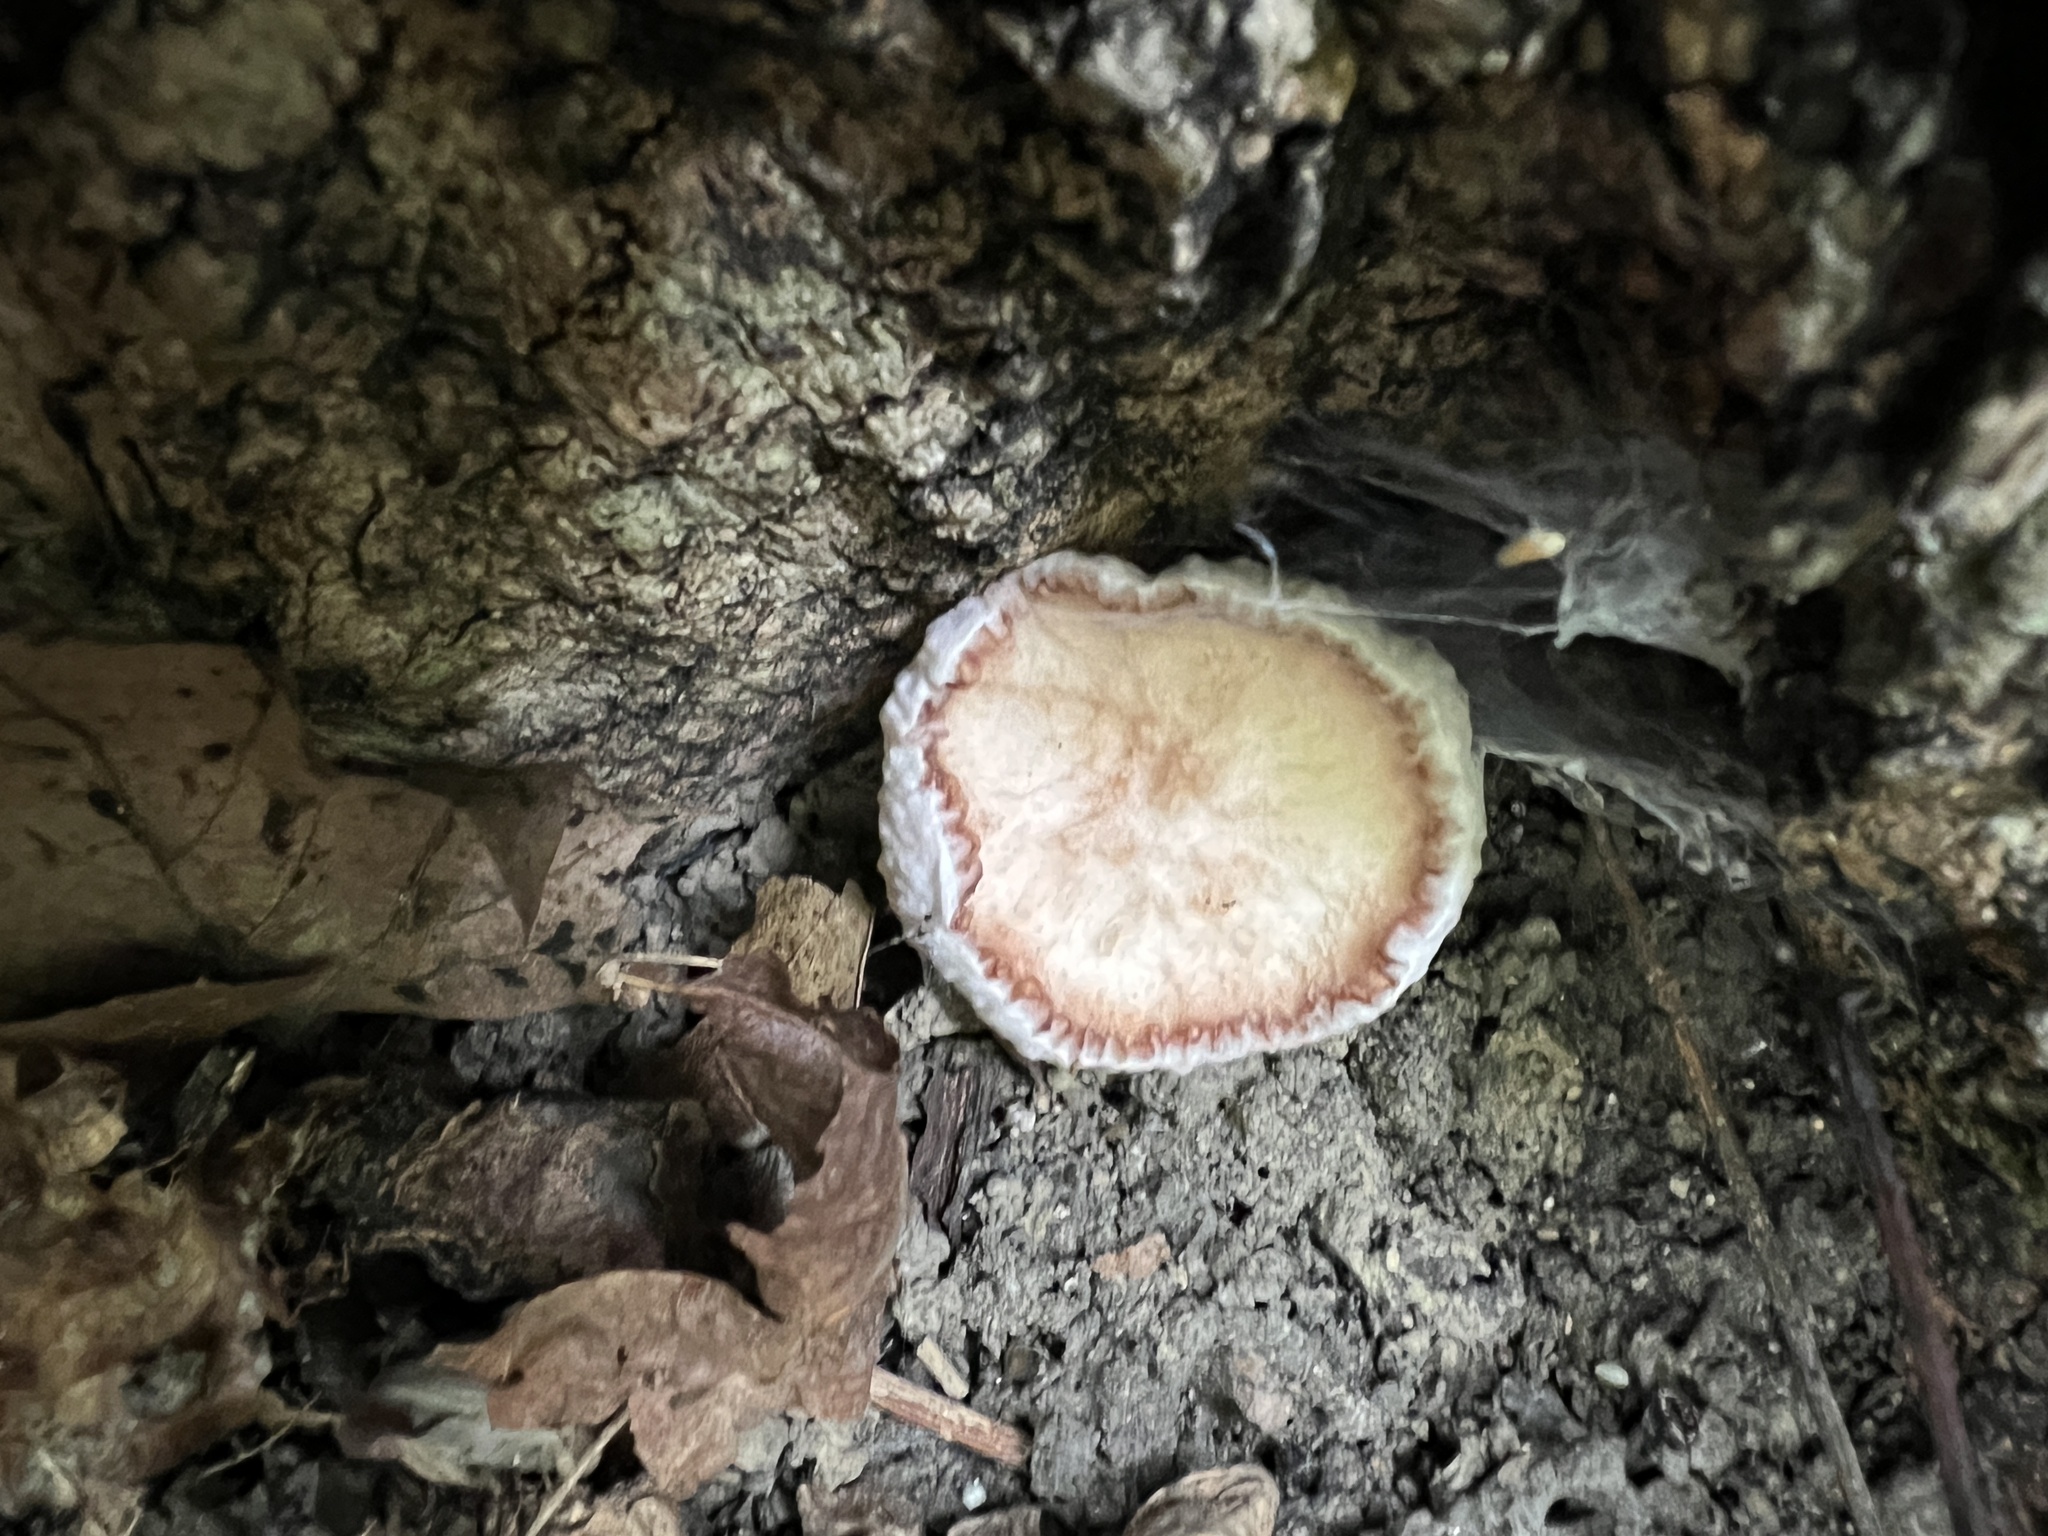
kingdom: Fungi
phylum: Basidiomycota
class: Agaricomycetes
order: Agaricales
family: Entolomataceae
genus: Entoloma
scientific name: Entoloma abortivum
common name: Aborted entoloma
